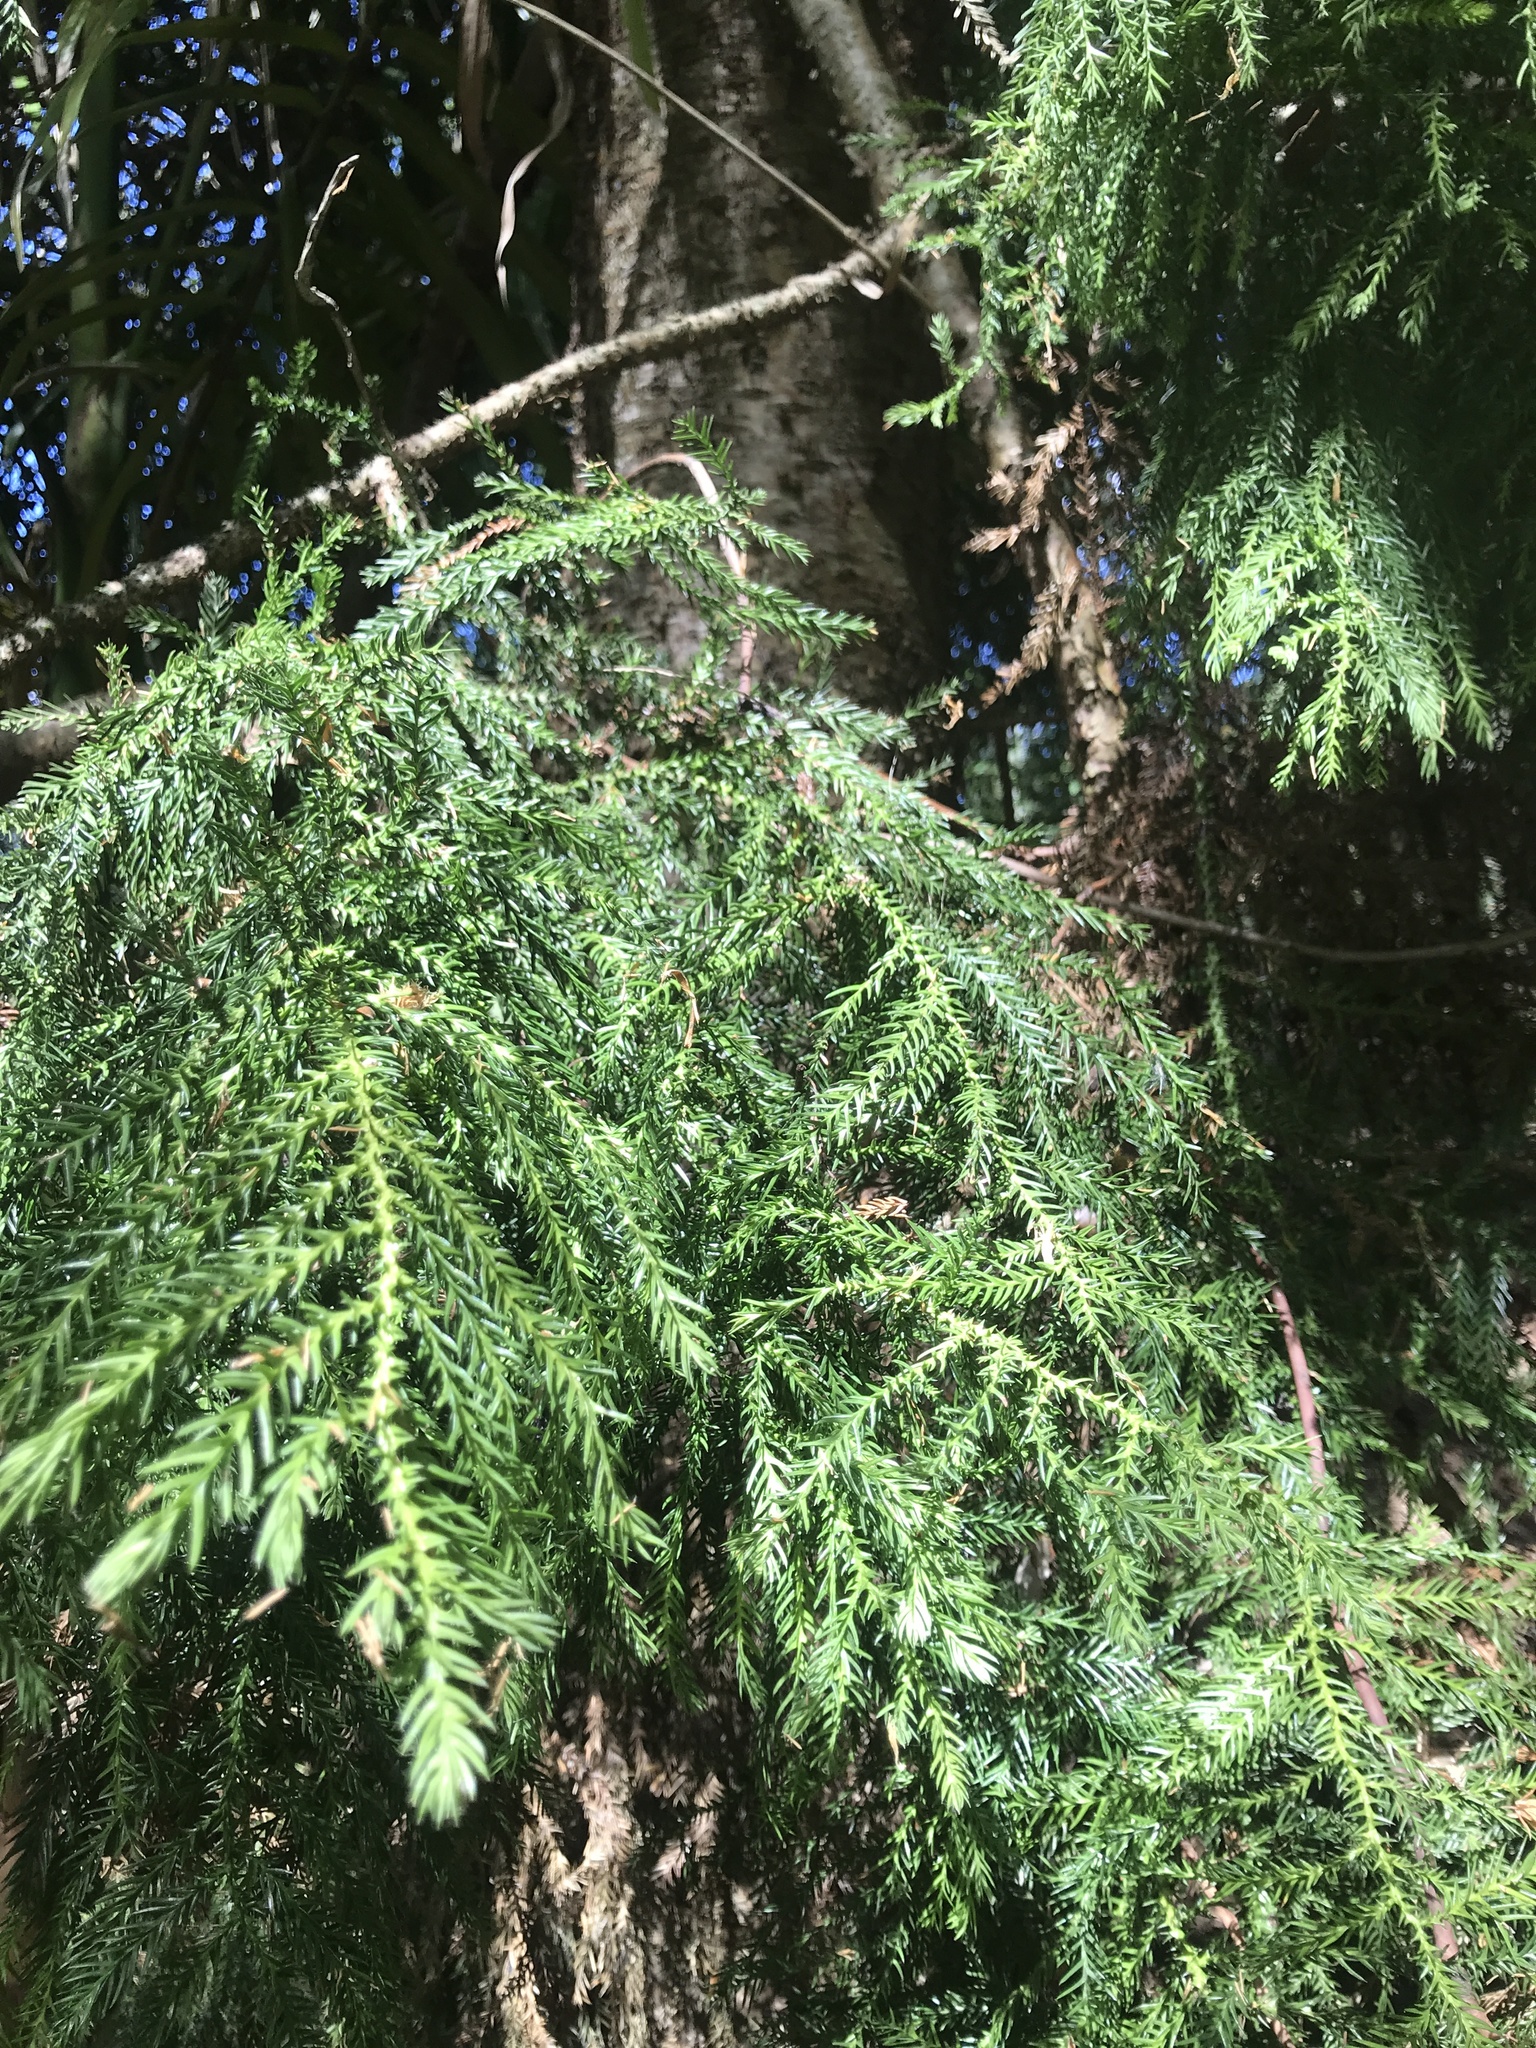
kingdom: Plantae
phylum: Tracheophyta
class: Pinopsida
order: Pinales
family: Araucariaceae
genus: Araucaria
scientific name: Araucaria cunninghamii
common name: Colonial pine
